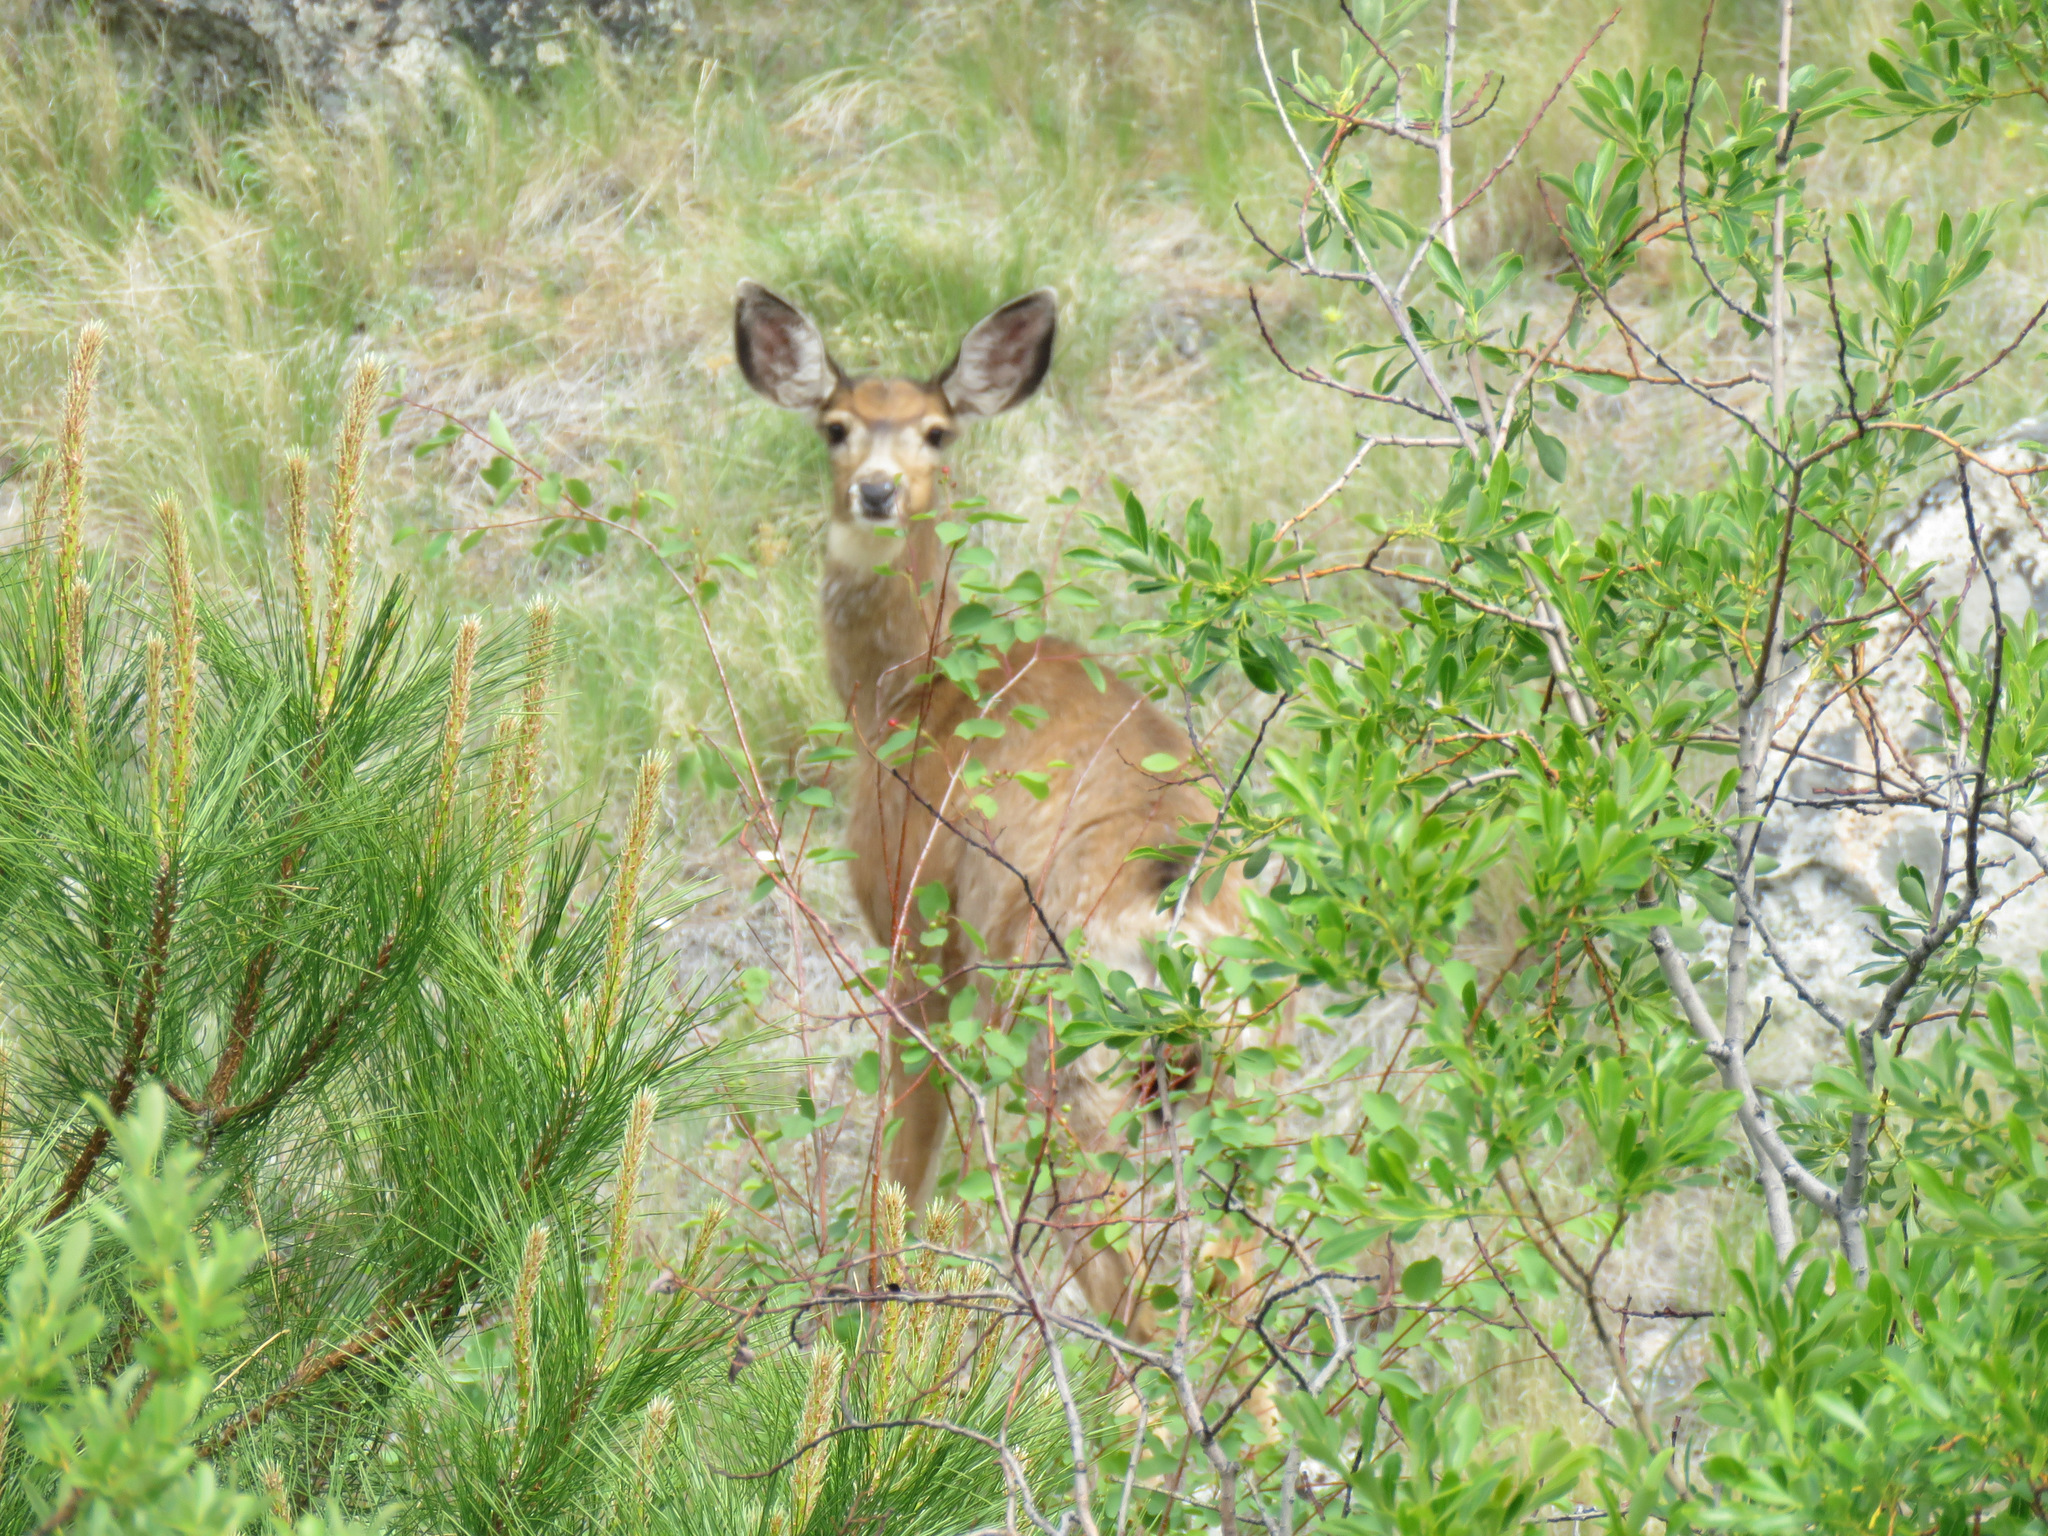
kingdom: Animalia
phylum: Chordata
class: Mammalia
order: Artiodactyla
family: Cervidae
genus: Odocoileus
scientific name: Odocoileus hemionus
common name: Mule deer
